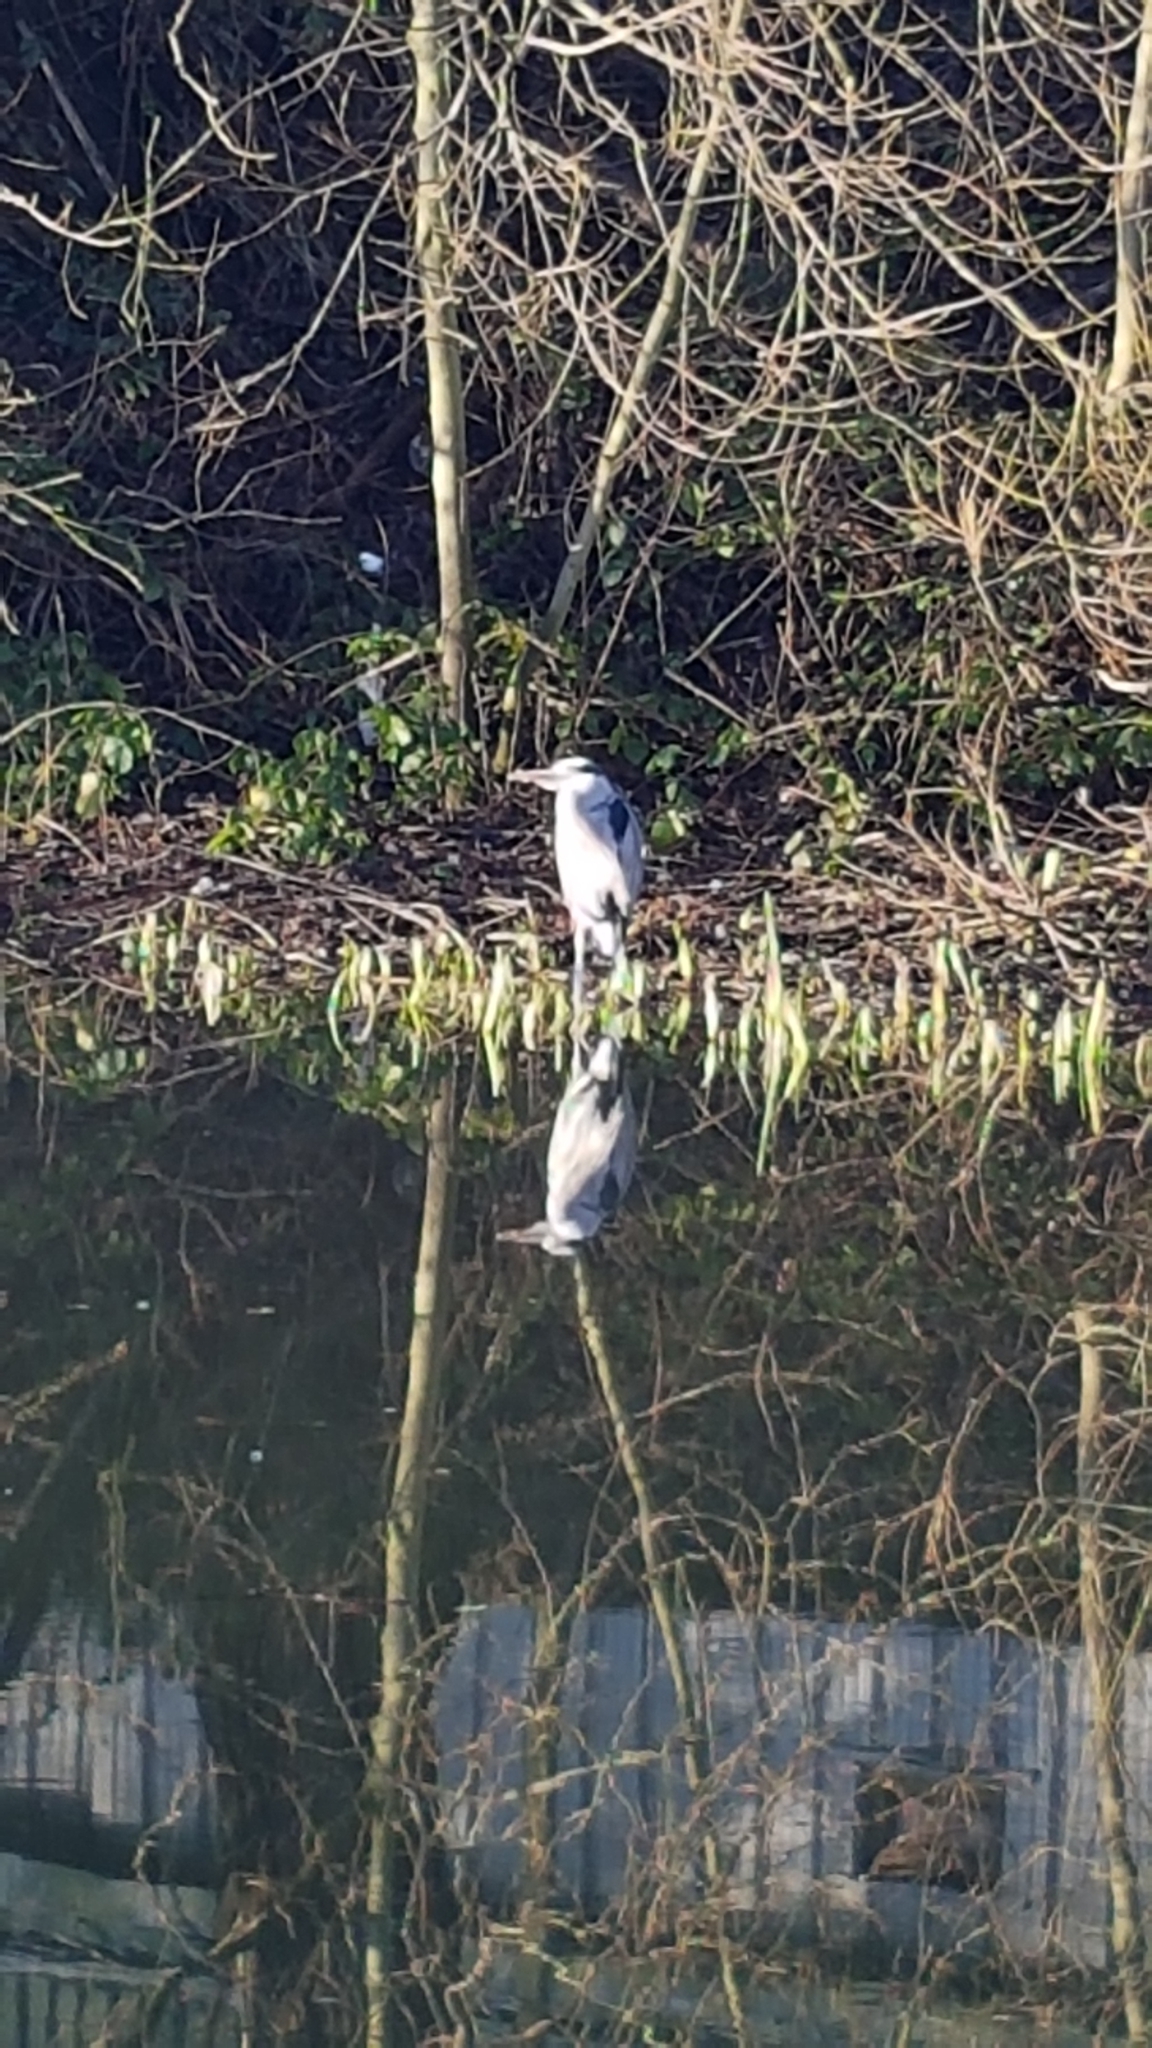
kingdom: Animalia
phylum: Chordata
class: Aves
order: Pelecaniformes
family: Ardeidae
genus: Ardea
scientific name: Ardea cinerea
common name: Grey heron
